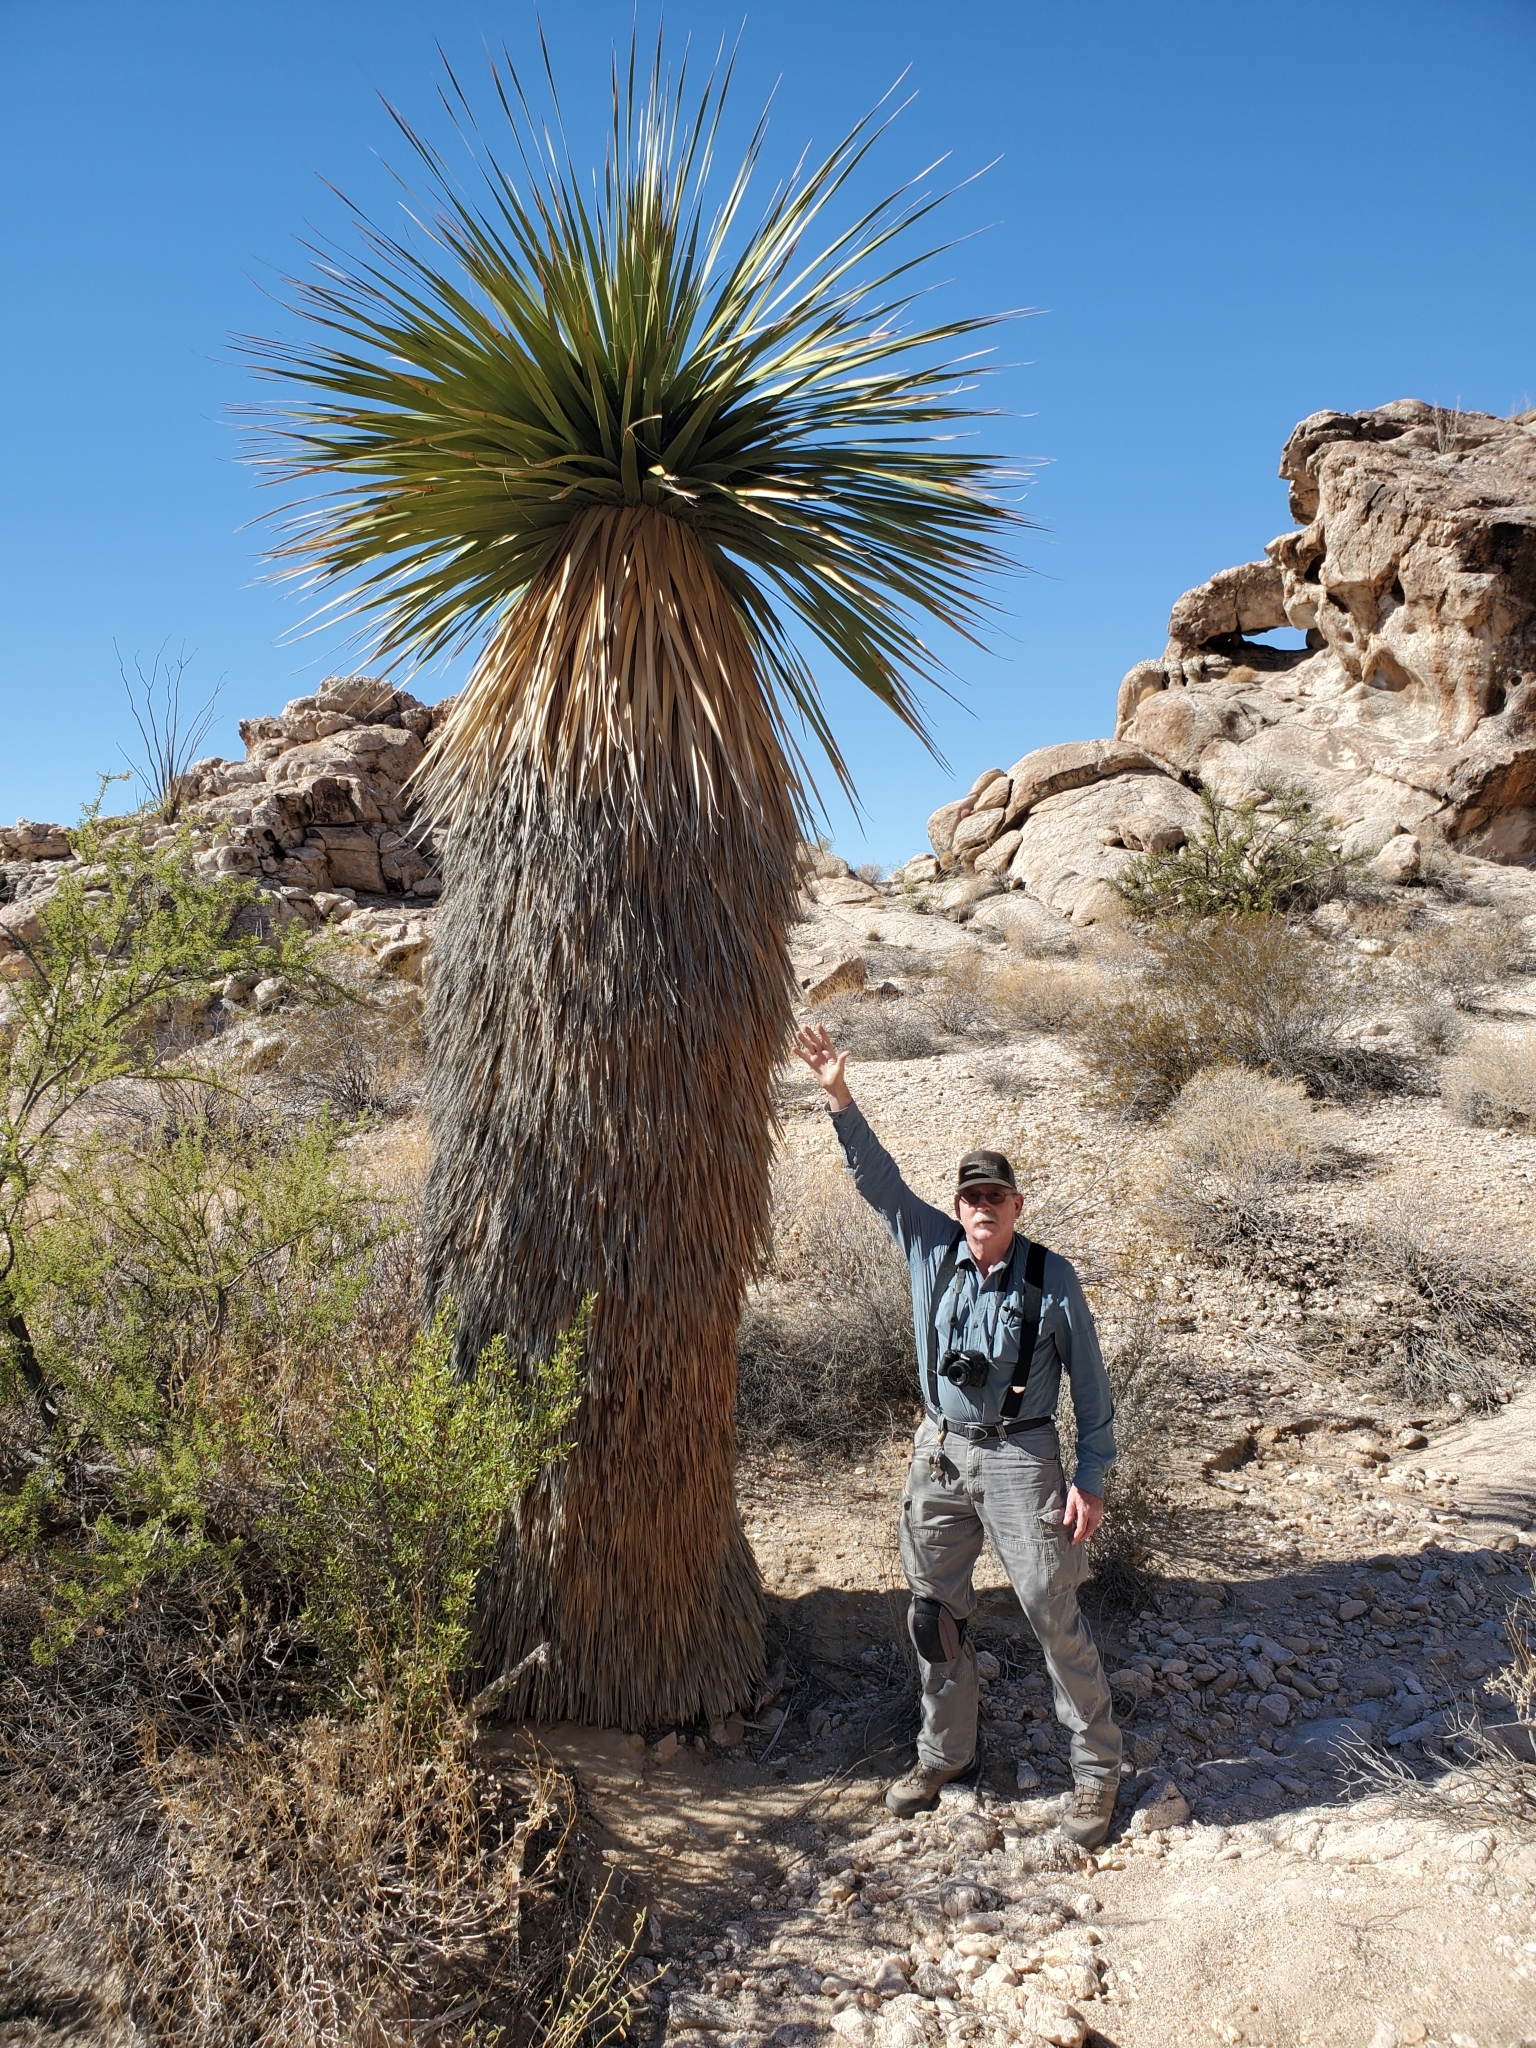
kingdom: Plantae
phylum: Tracheophyta
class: Liliopsida
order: Asparagales
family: Asparagaceae
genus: Nolina
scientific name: Nolina bigelovii
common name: Bigelow bear-grass
